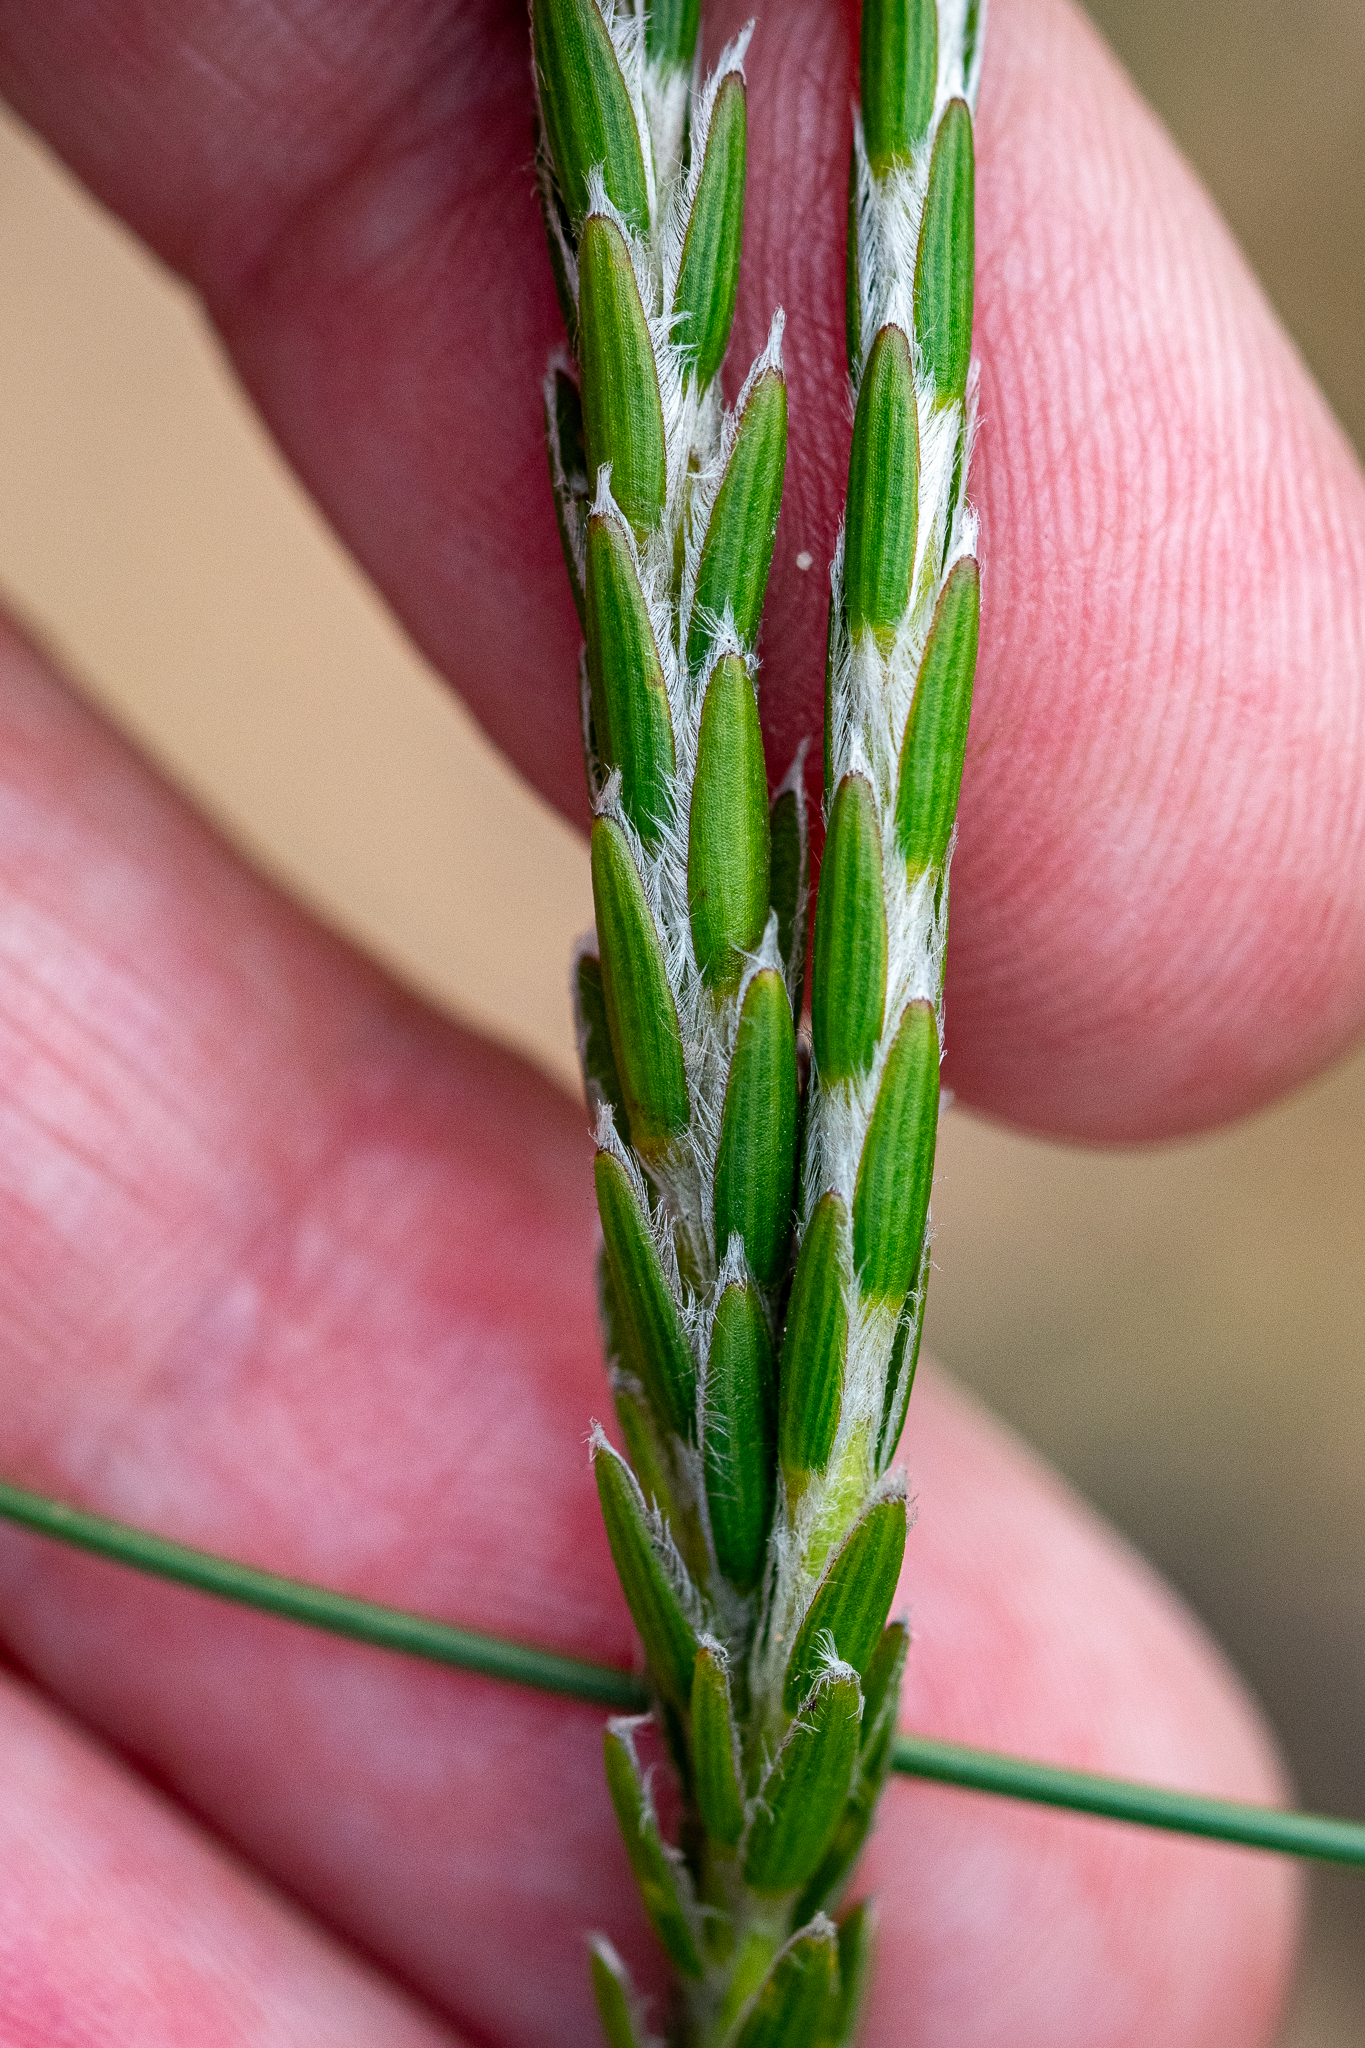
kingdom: Plantae
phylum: Tracheophyta
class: Magnoliopsida
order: Malvales
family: Thymelaeaceae
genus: Struthiola
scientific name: Struthiola ciliata
